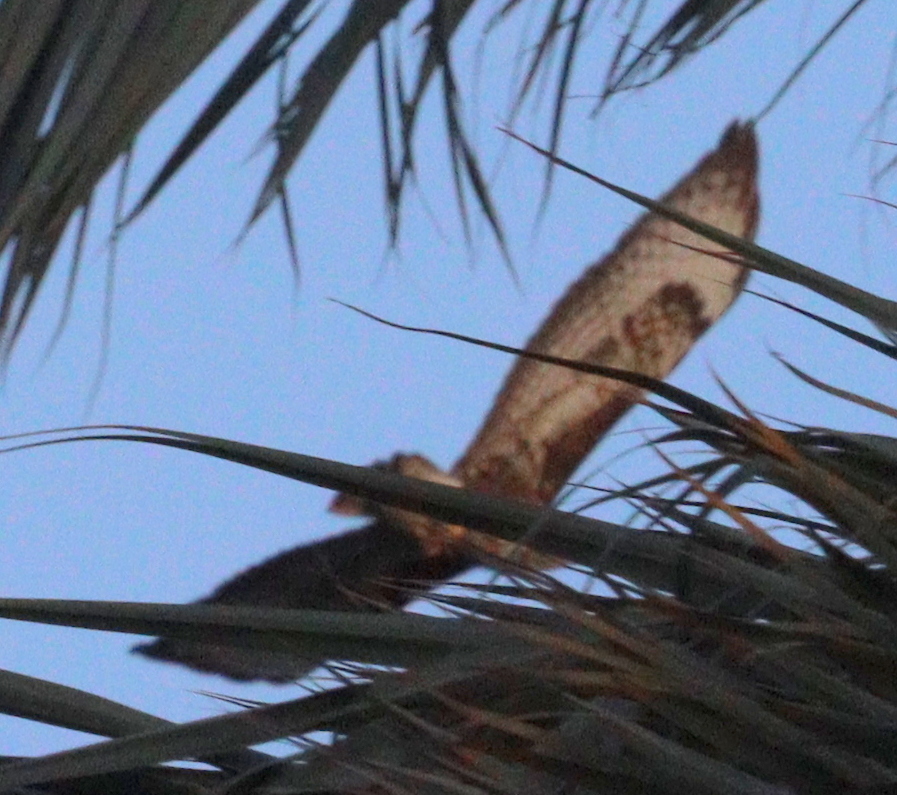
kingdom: Animalia
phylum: Chordata
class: Aves
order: Accipitriformes
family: Accipitridae
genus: Buteo
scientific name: Buteo buteo
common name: Common buzzard
